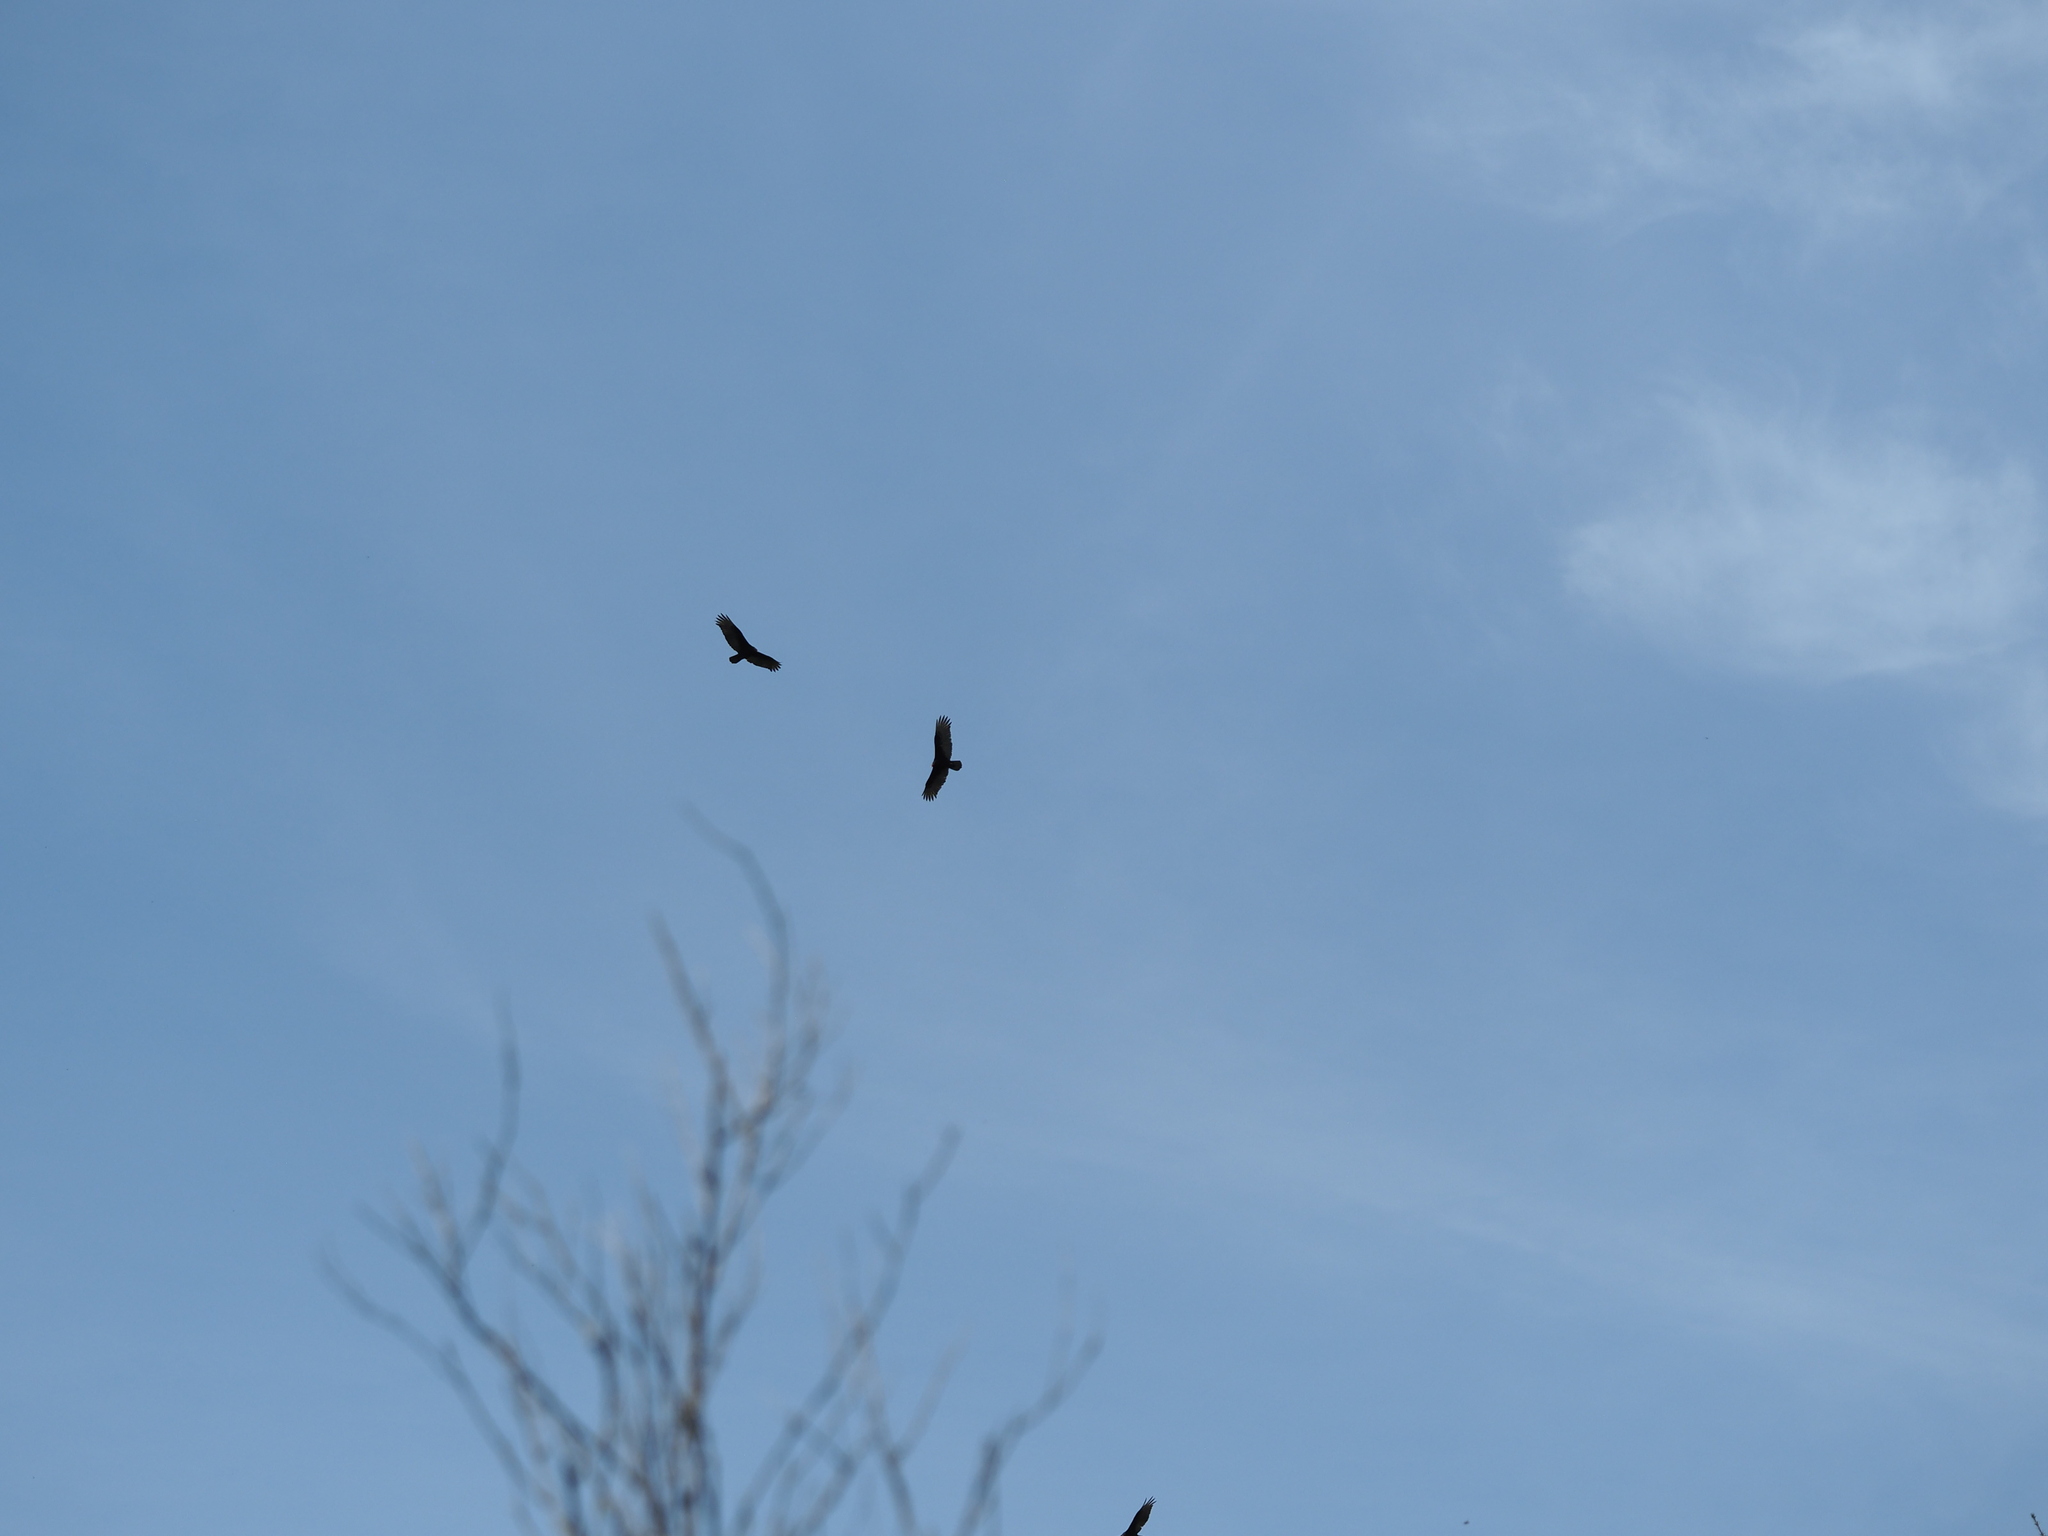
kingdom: Animalia
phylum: Chordata
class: Aves
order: Accipitriformes
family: Cathartidae
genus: Cathartes
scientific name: Cathartes aura
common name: Turkey vulture
